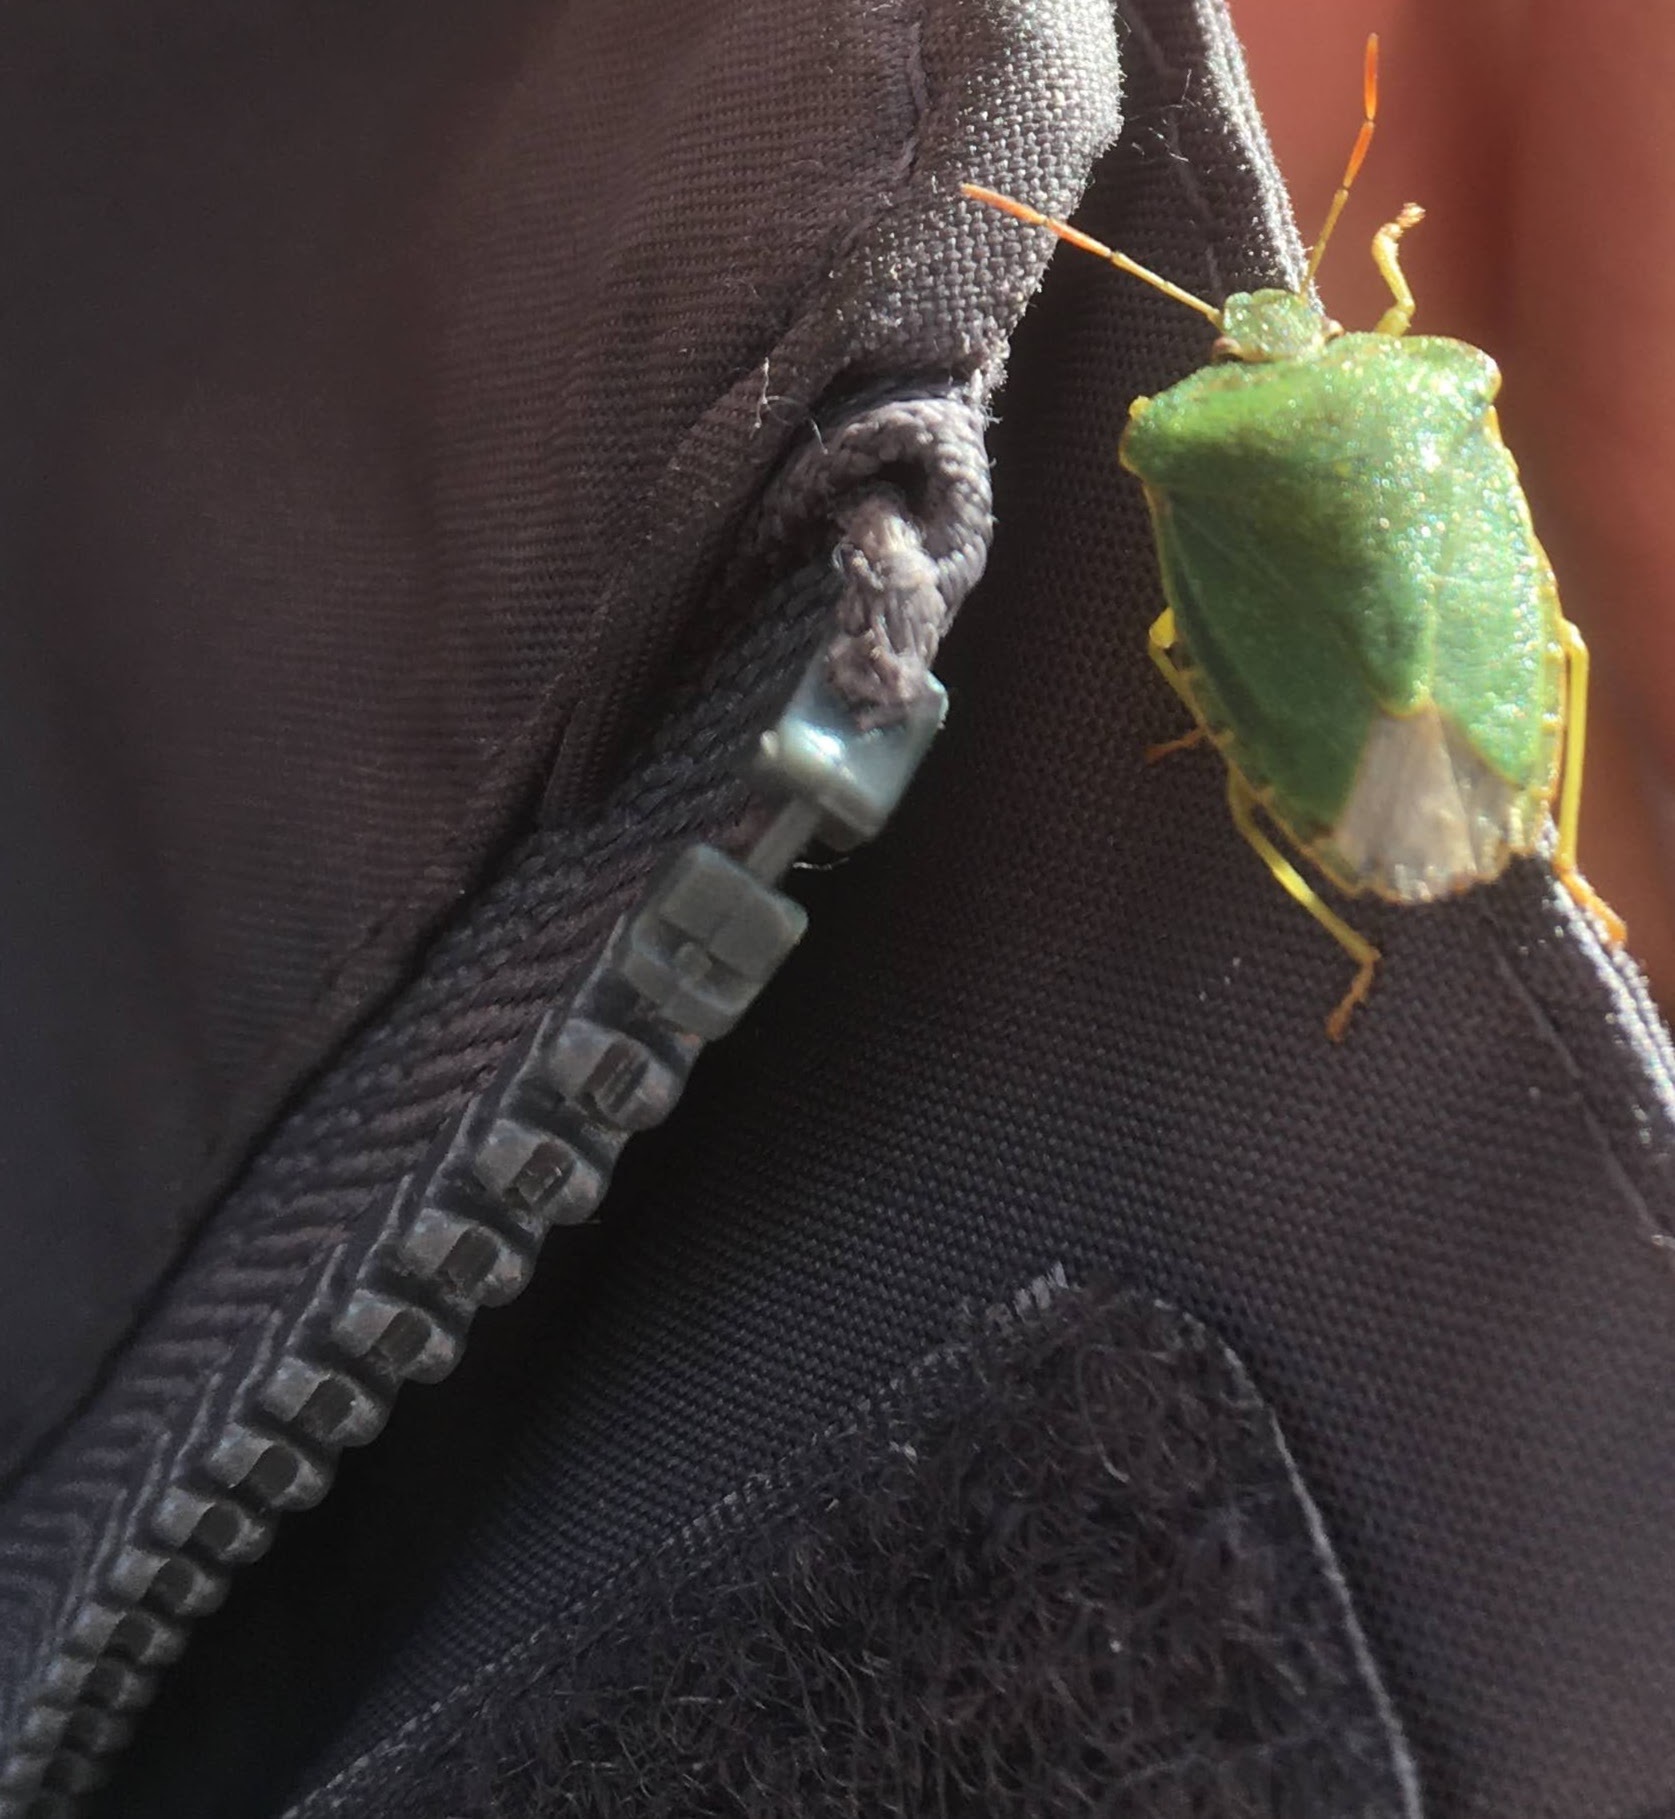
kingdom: Animalia
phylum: Arthropoda
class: Insecta
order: Hemiptera
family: Pentatomidae
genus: Palomena
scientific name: Palomena prasina
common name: Green shieldbug
